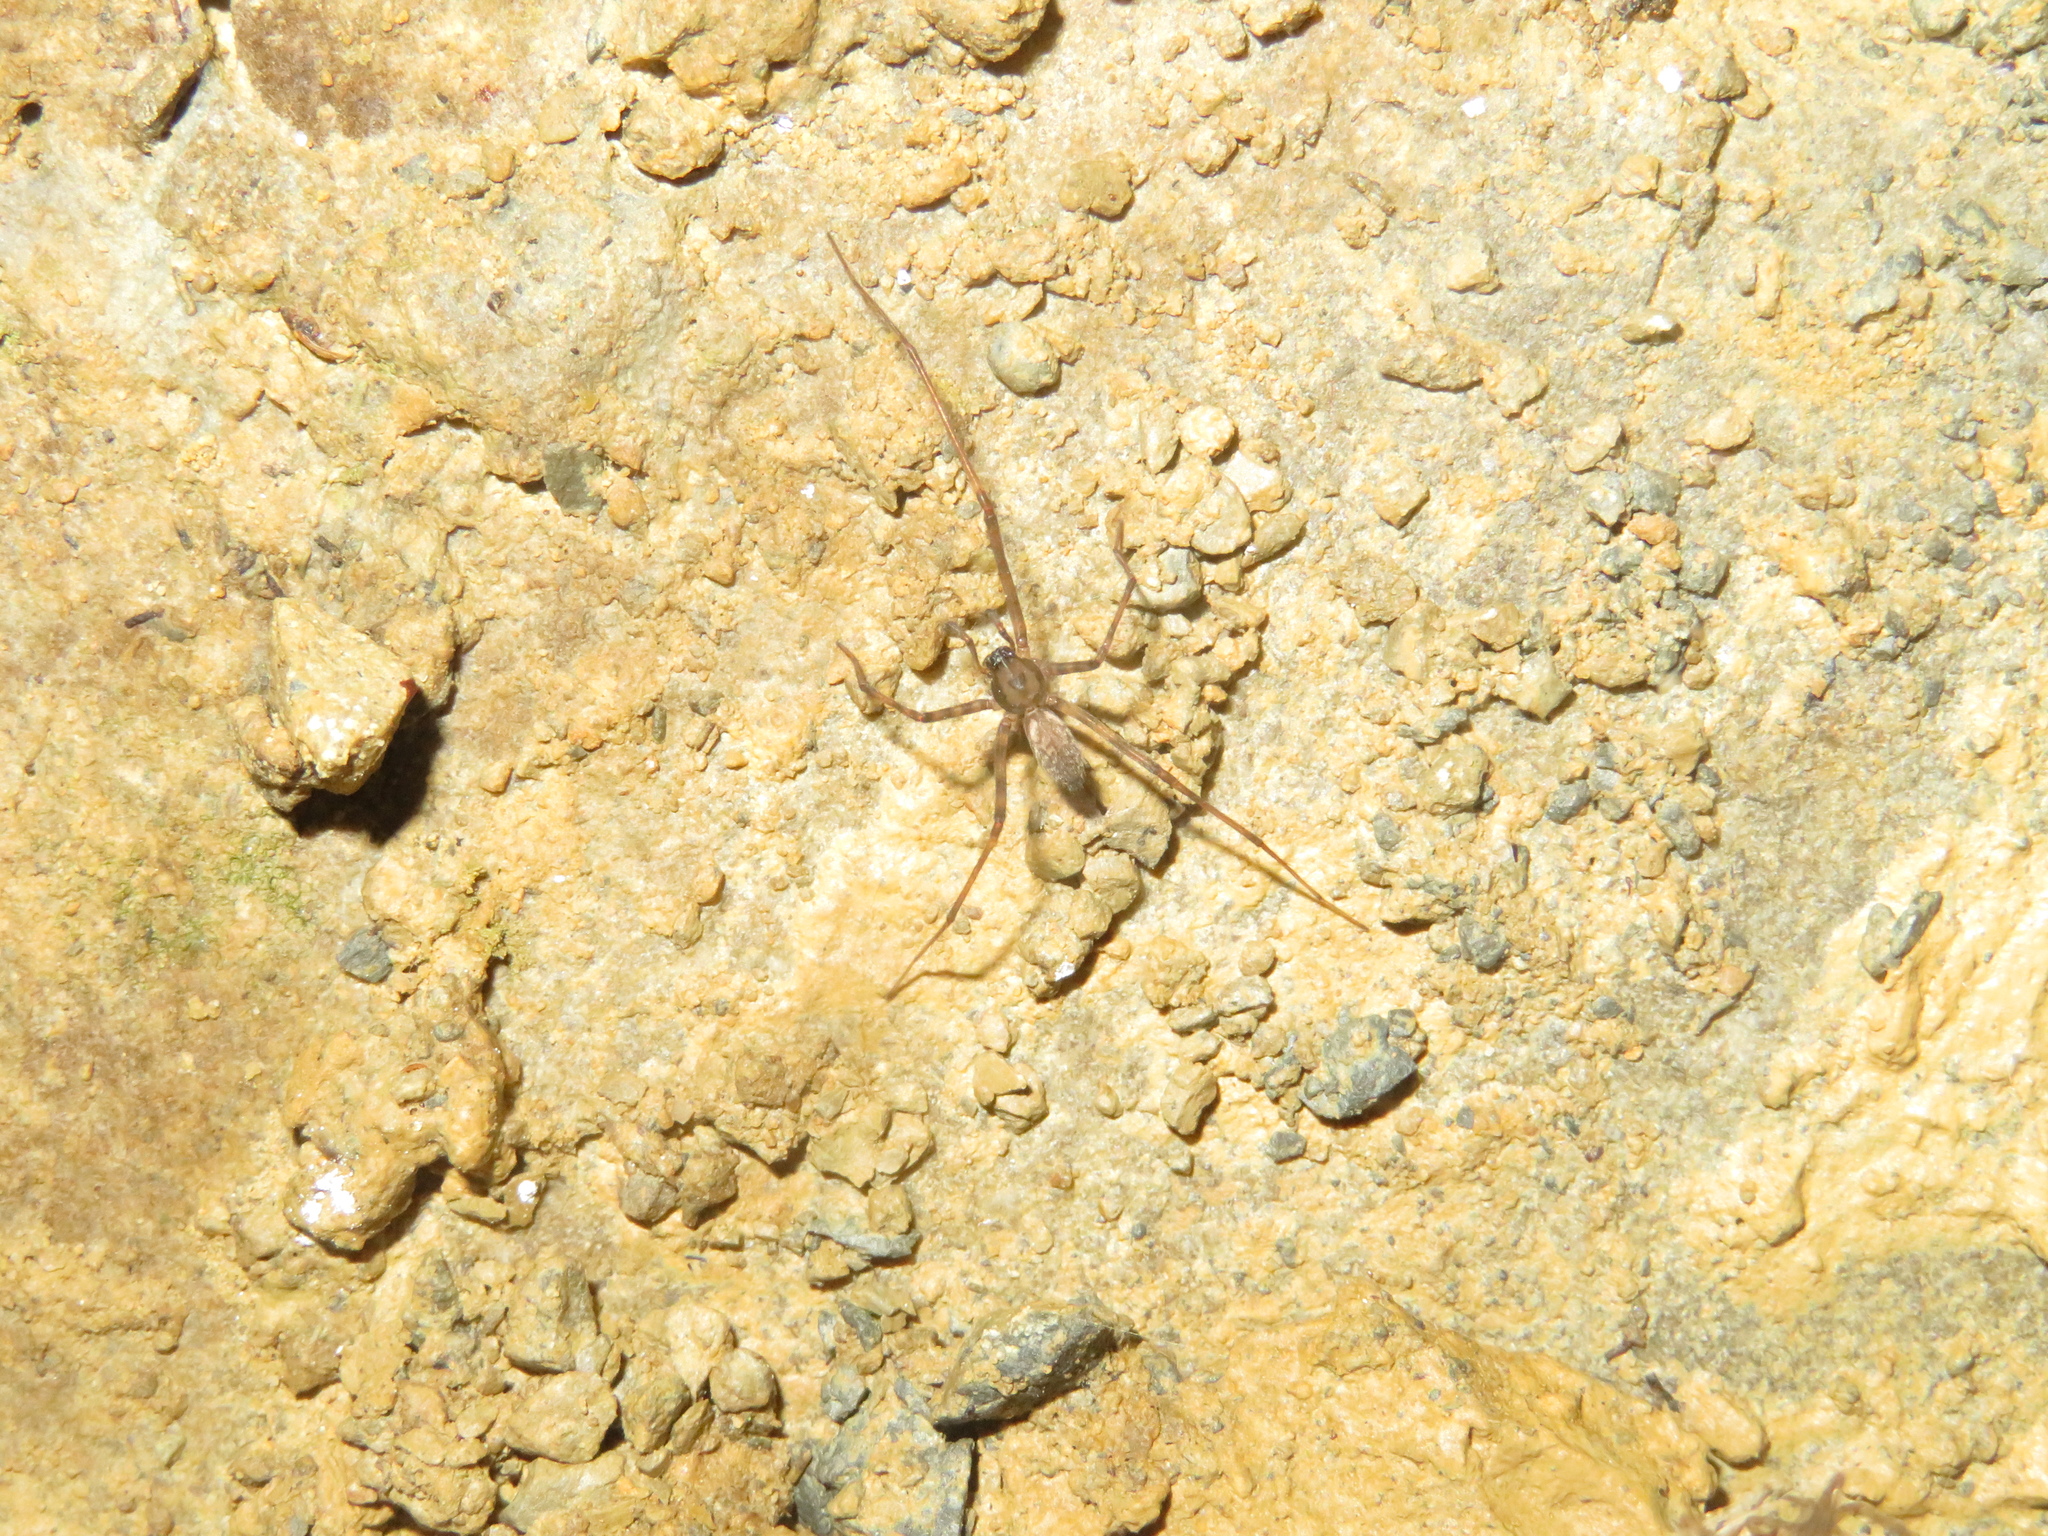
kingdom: Animalia
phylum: Arthropoda
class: Arachnida
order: Araneae
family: Desidae
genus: Nanocambridgea
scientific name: Nanocambridgea gracilipes
